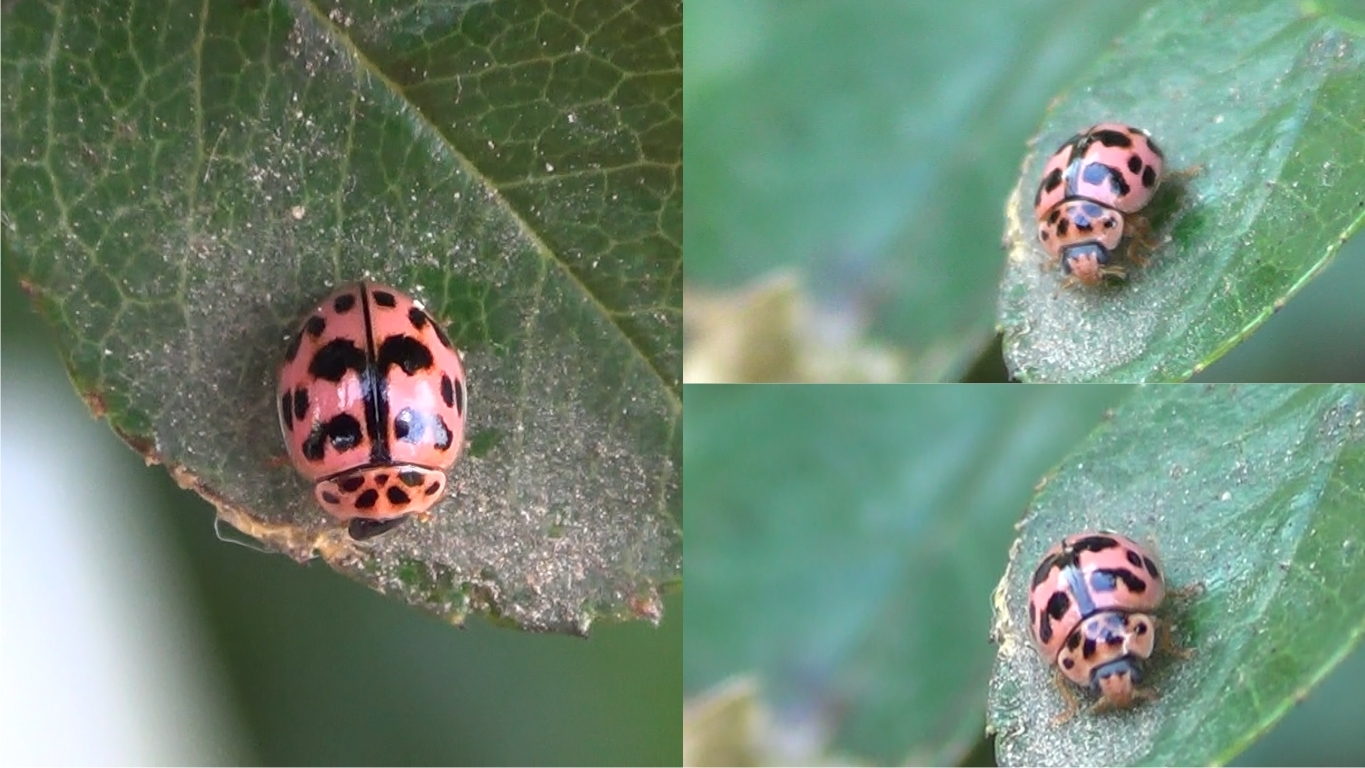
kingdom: Animalia
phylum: Arthropoda
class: Insecta
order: Coleoptera
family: Coccinellidae
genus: Oenopia
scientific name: Oenopia conglobata
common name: Ladybird beetle
